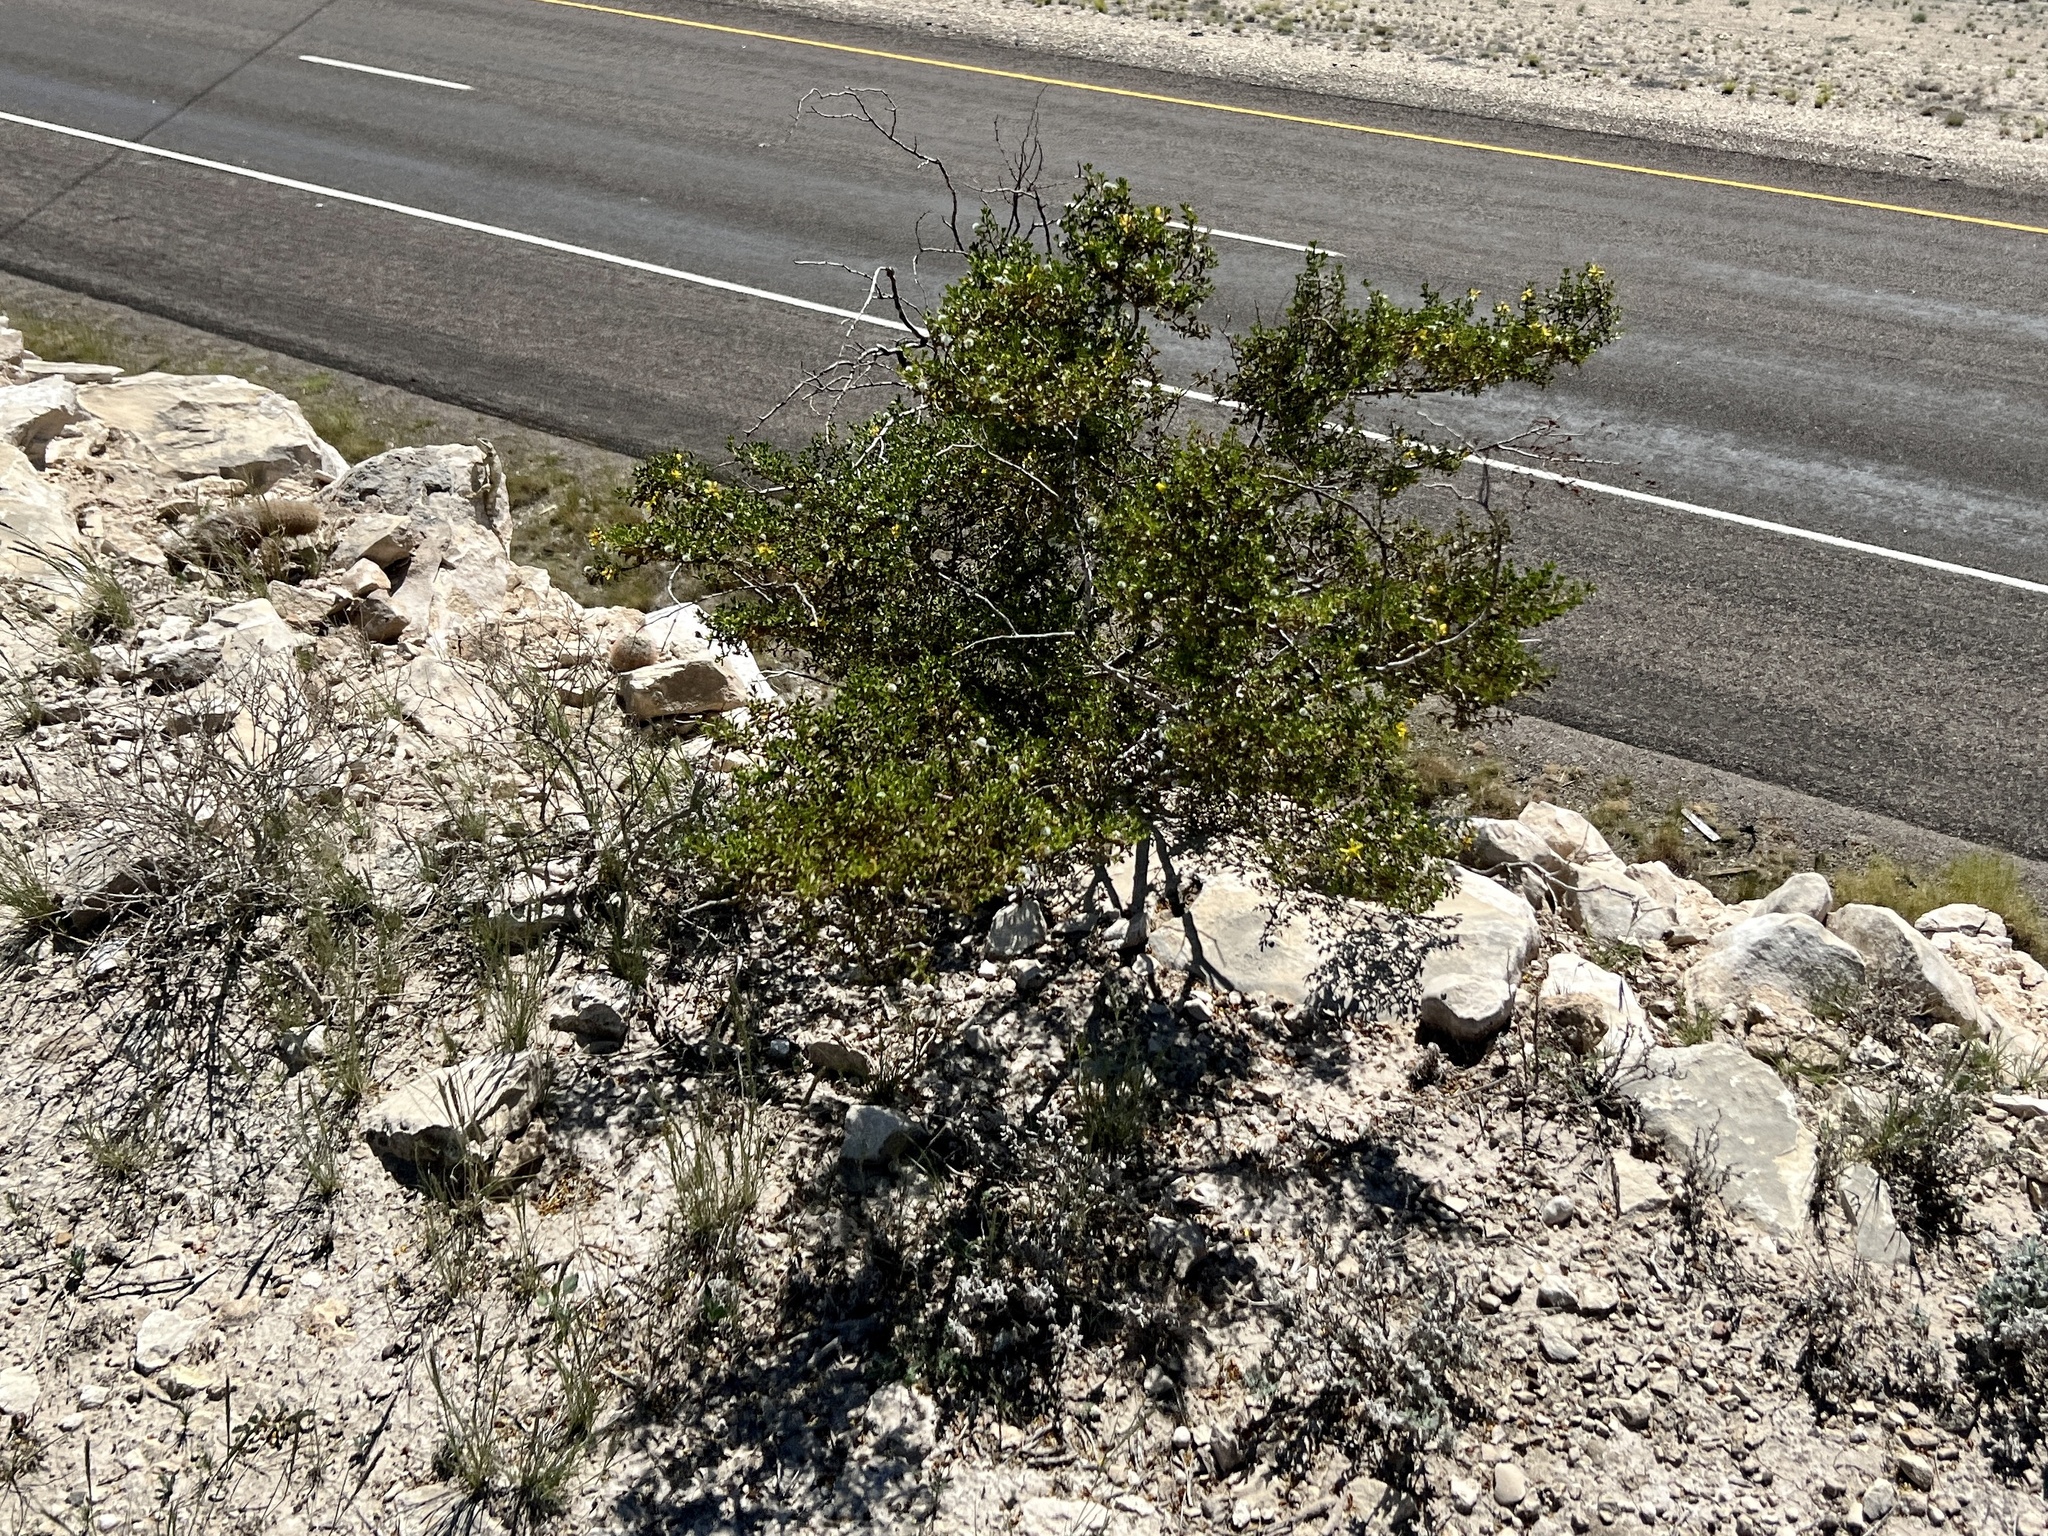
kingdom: Plantae
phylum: Tracheophyta
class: Magnoliopsida
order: Zygophyllales
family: Zygophyllaceae
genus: Larrea
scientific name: Larrea tridentata
